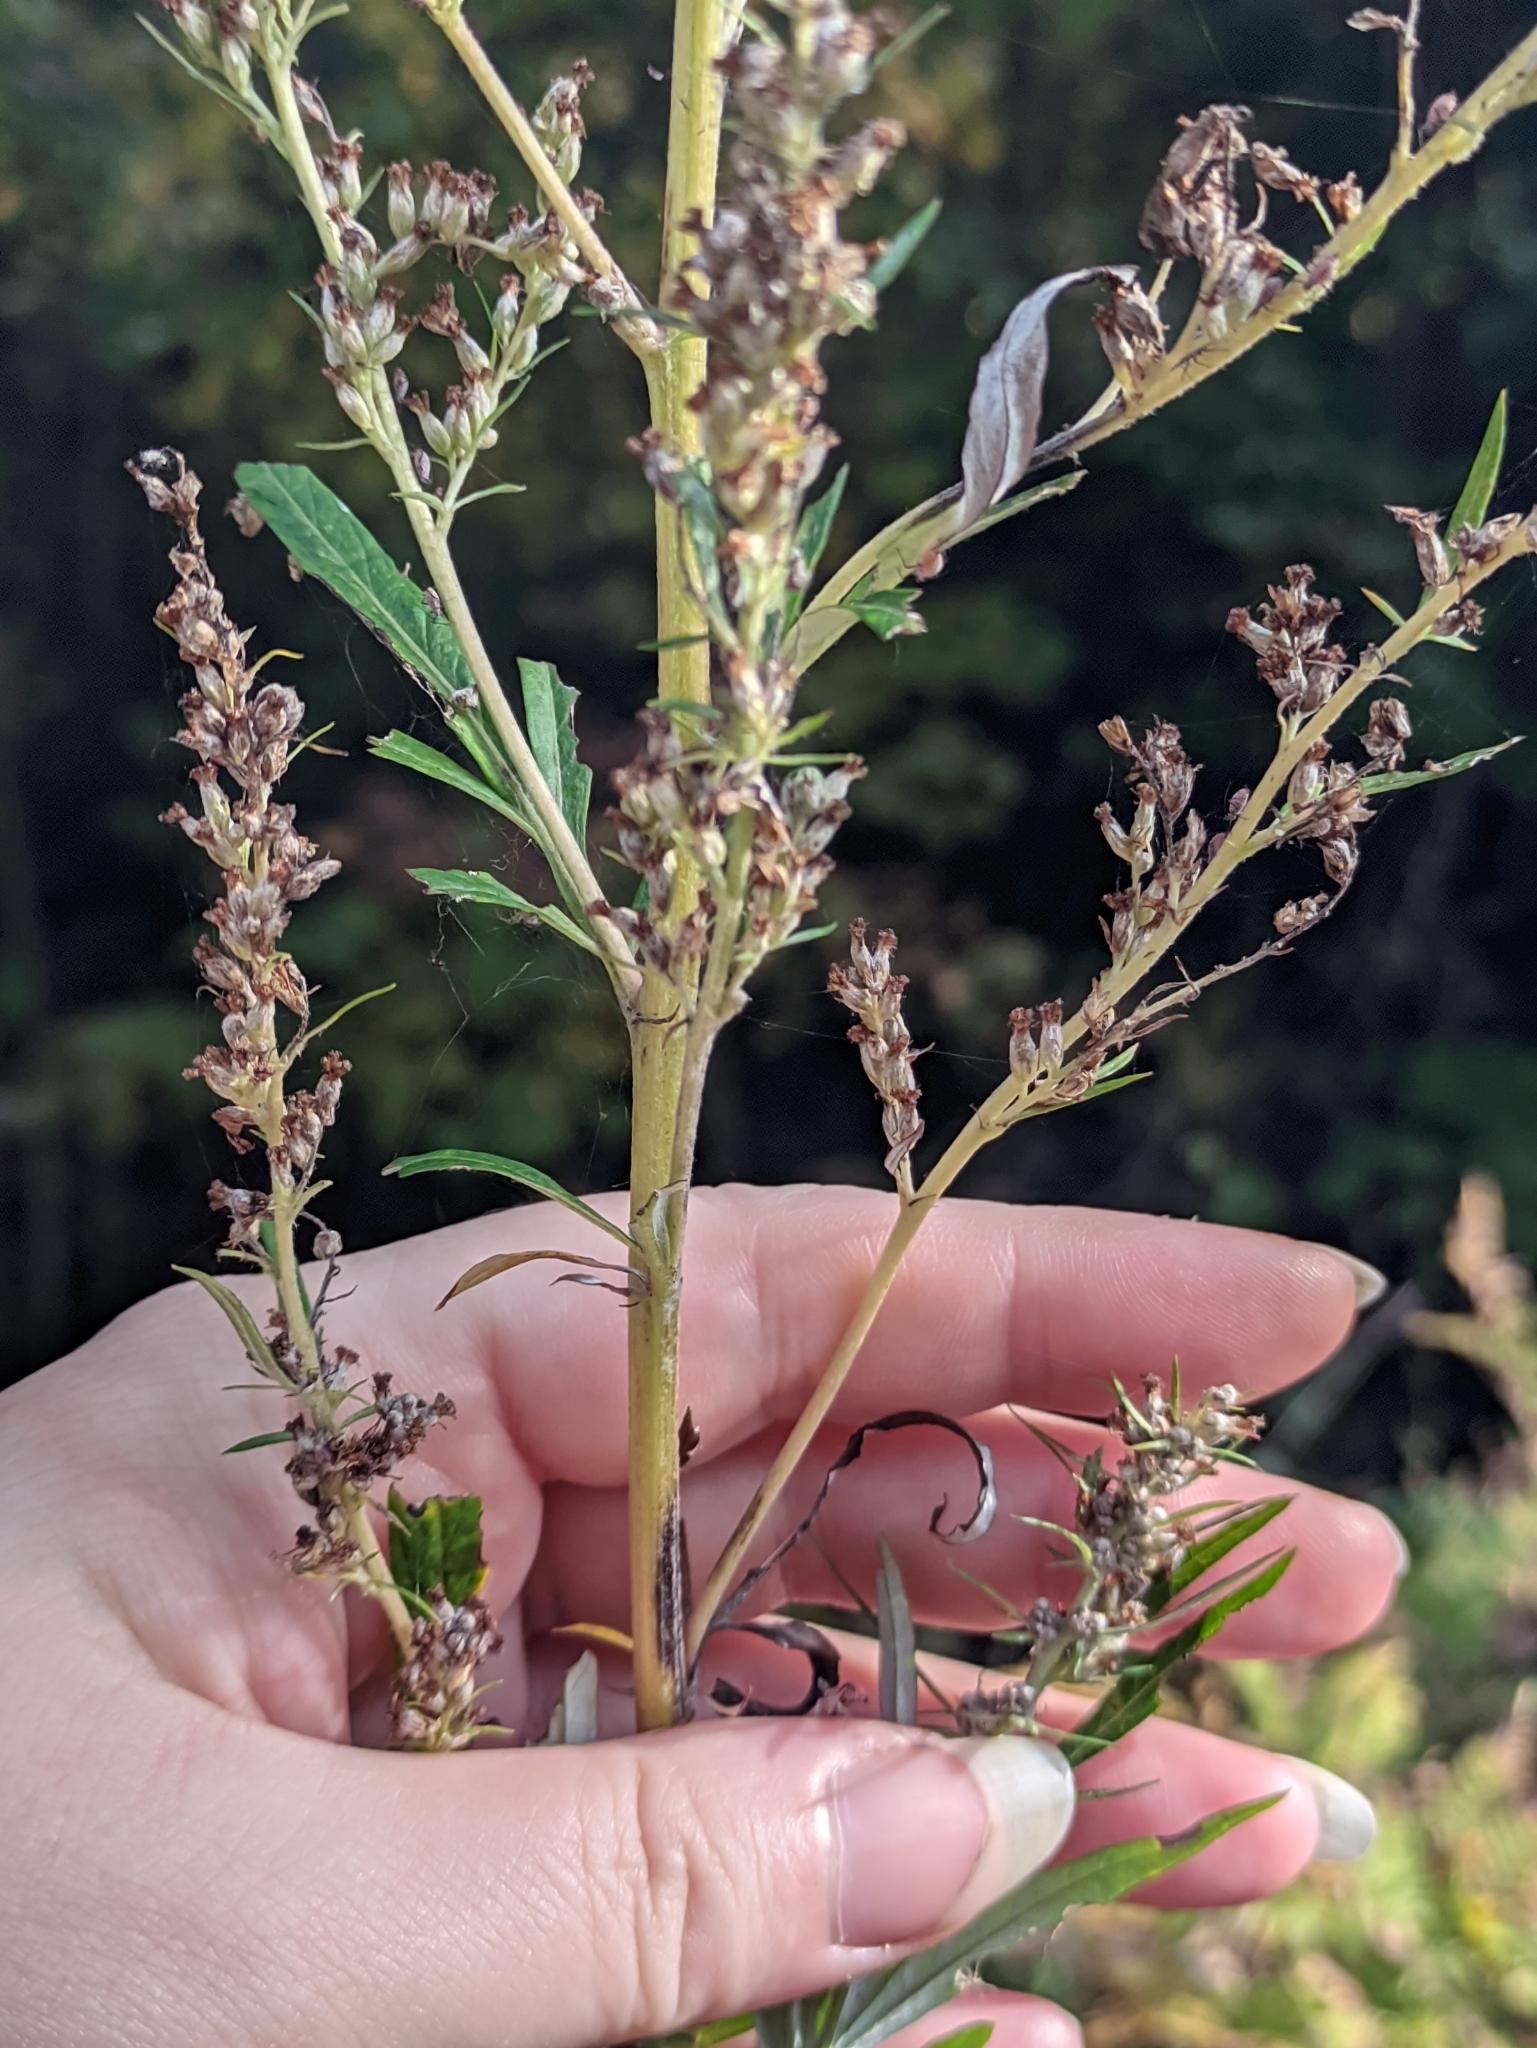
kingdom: Plantae
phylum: Tracheophyta
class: Magnoliopsida
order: Asterales
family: Asteraceae
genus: Artemisia
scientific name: Artemisia vulgaris
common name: Mugwort
